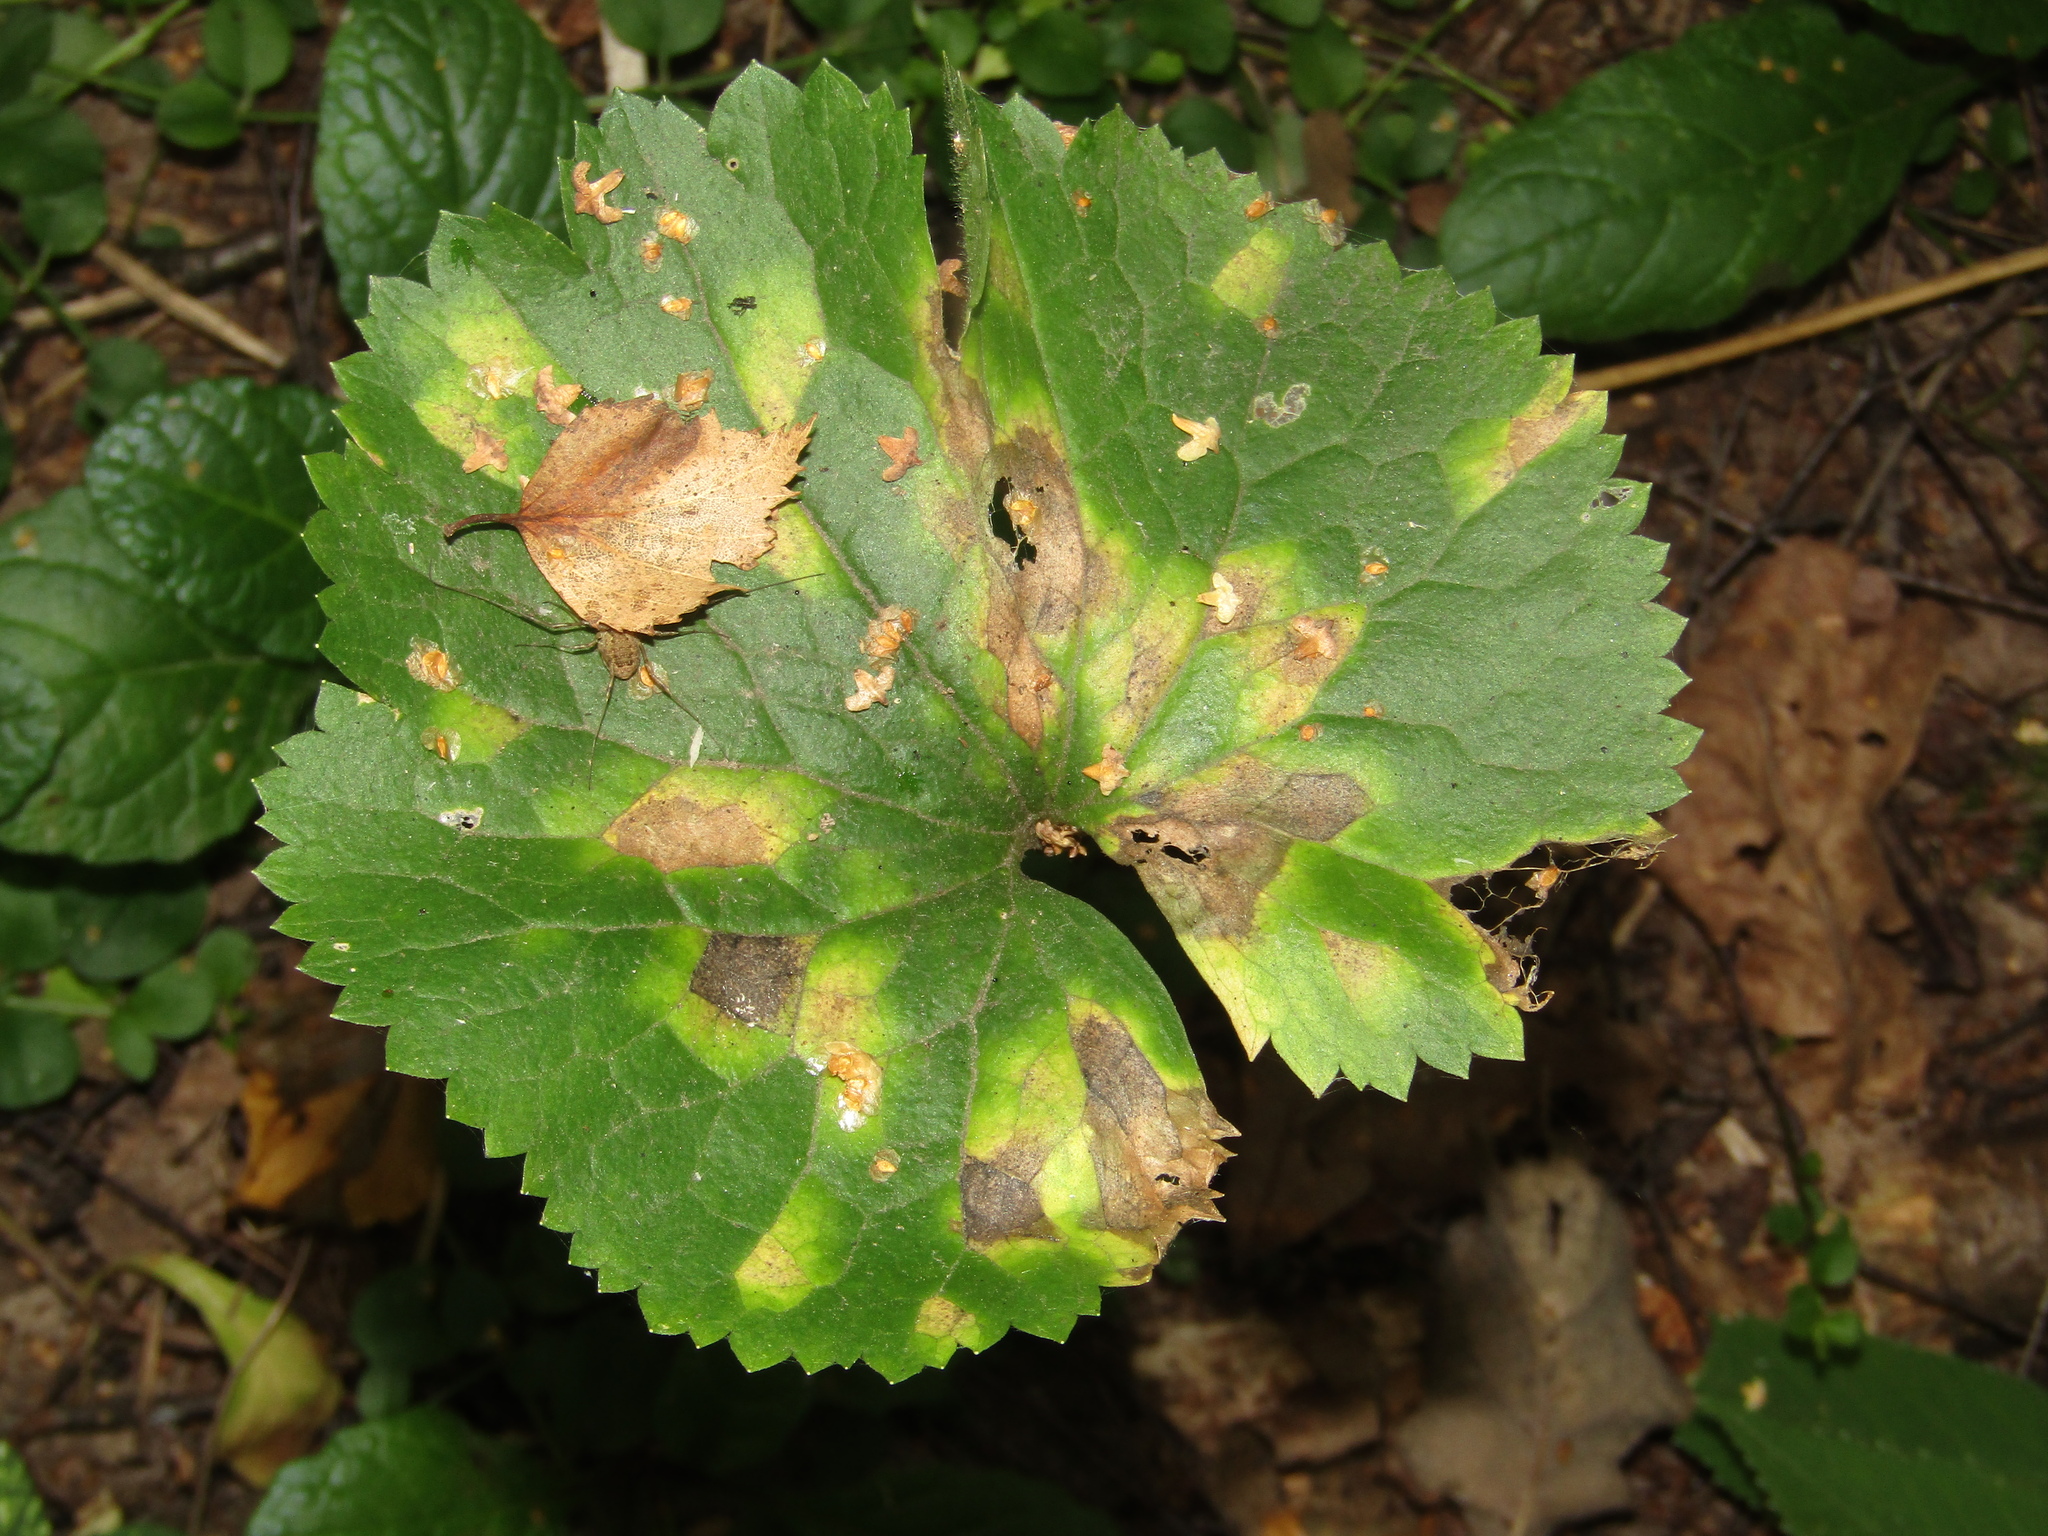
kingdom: Plantae
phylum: Tracheophyta
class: Magnoliopsida
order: Ranunculales
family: Ranunculaceae
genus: Ranunculus
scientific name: Ranunculus cassubicus
